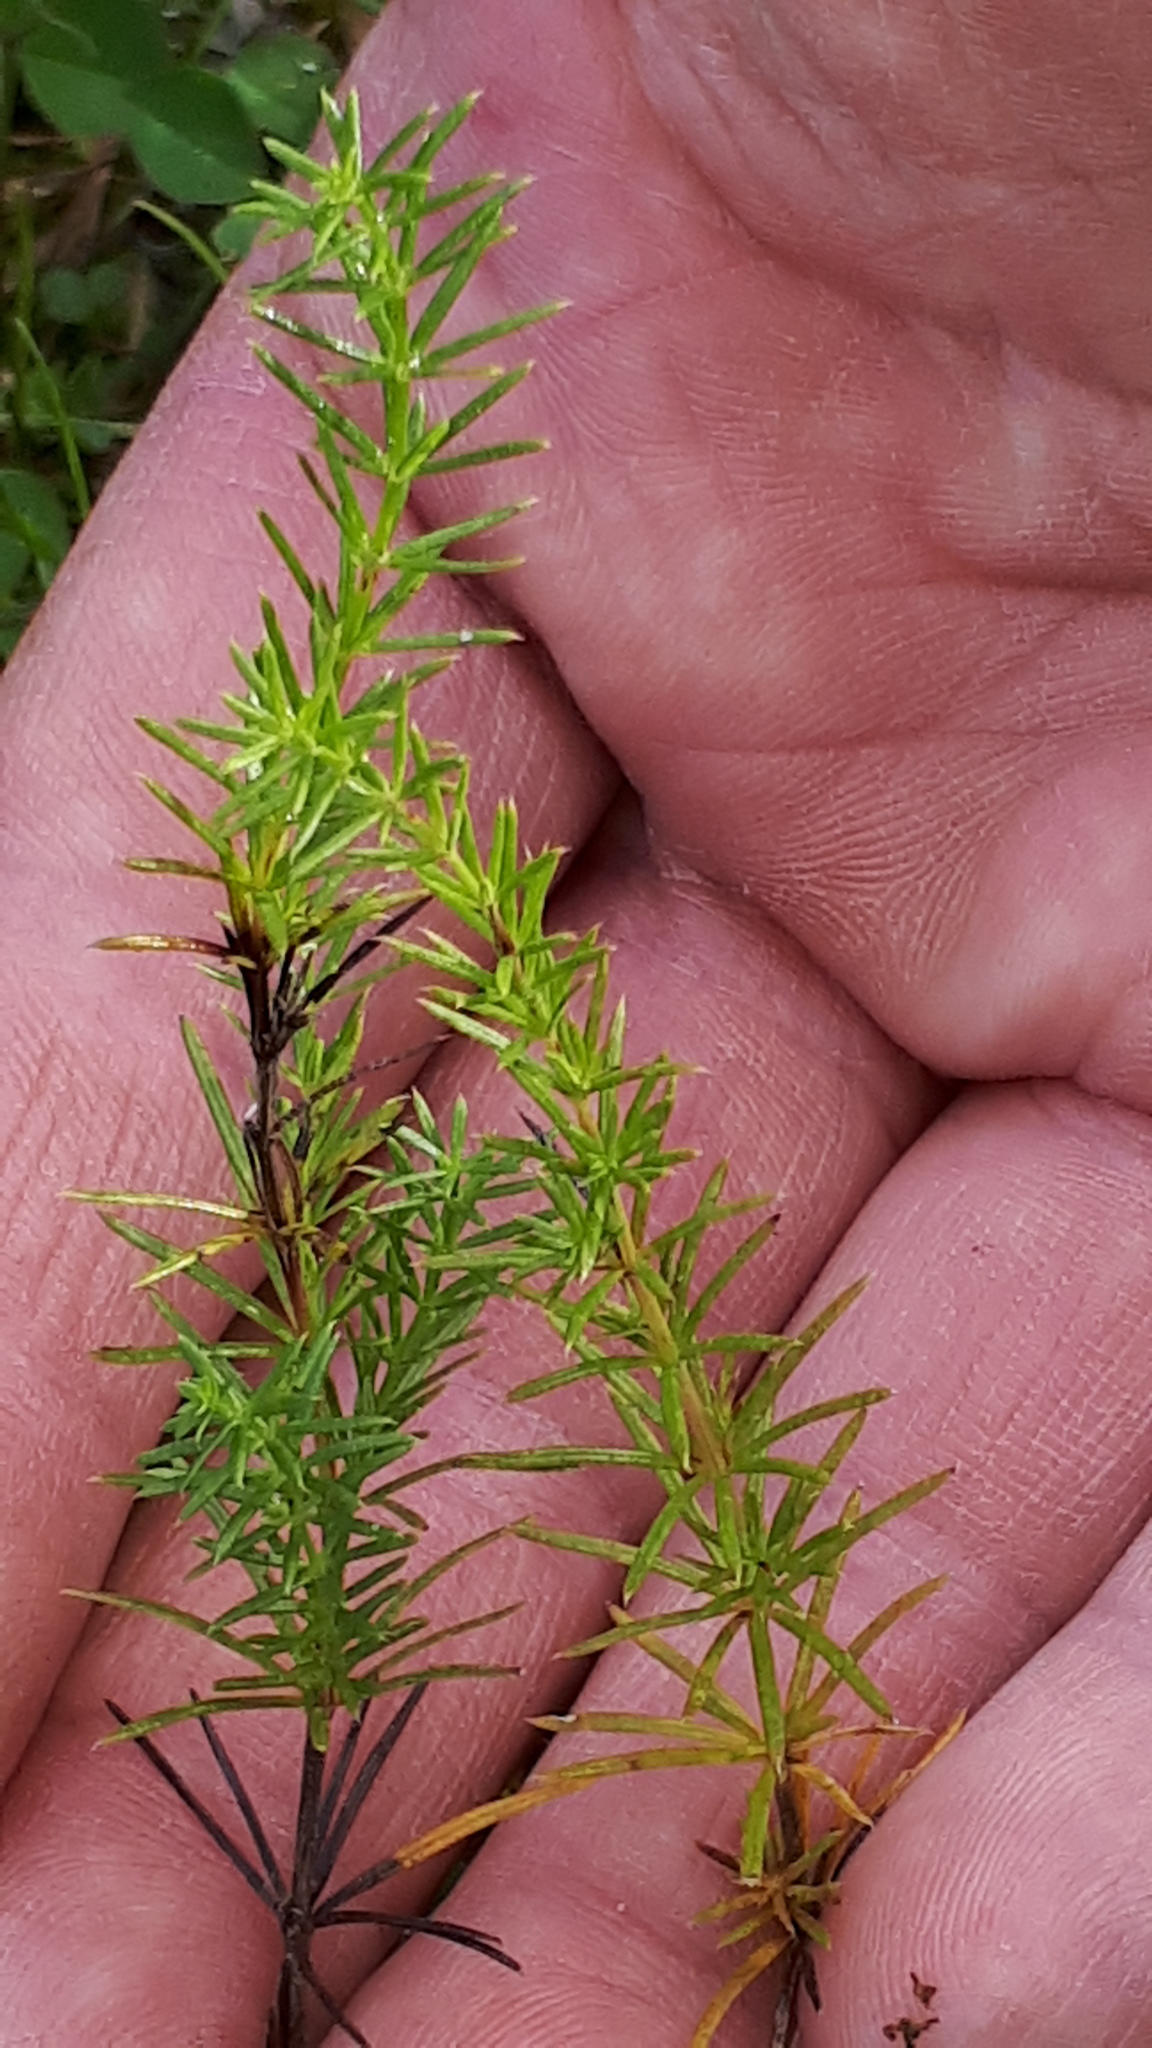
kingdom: Plantae
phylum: Tracheophyta
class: Magnoliopsida
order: Gentianales
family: Rubiaceae
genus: Galium
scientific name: Galium verum
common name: Lady's bedstraw
